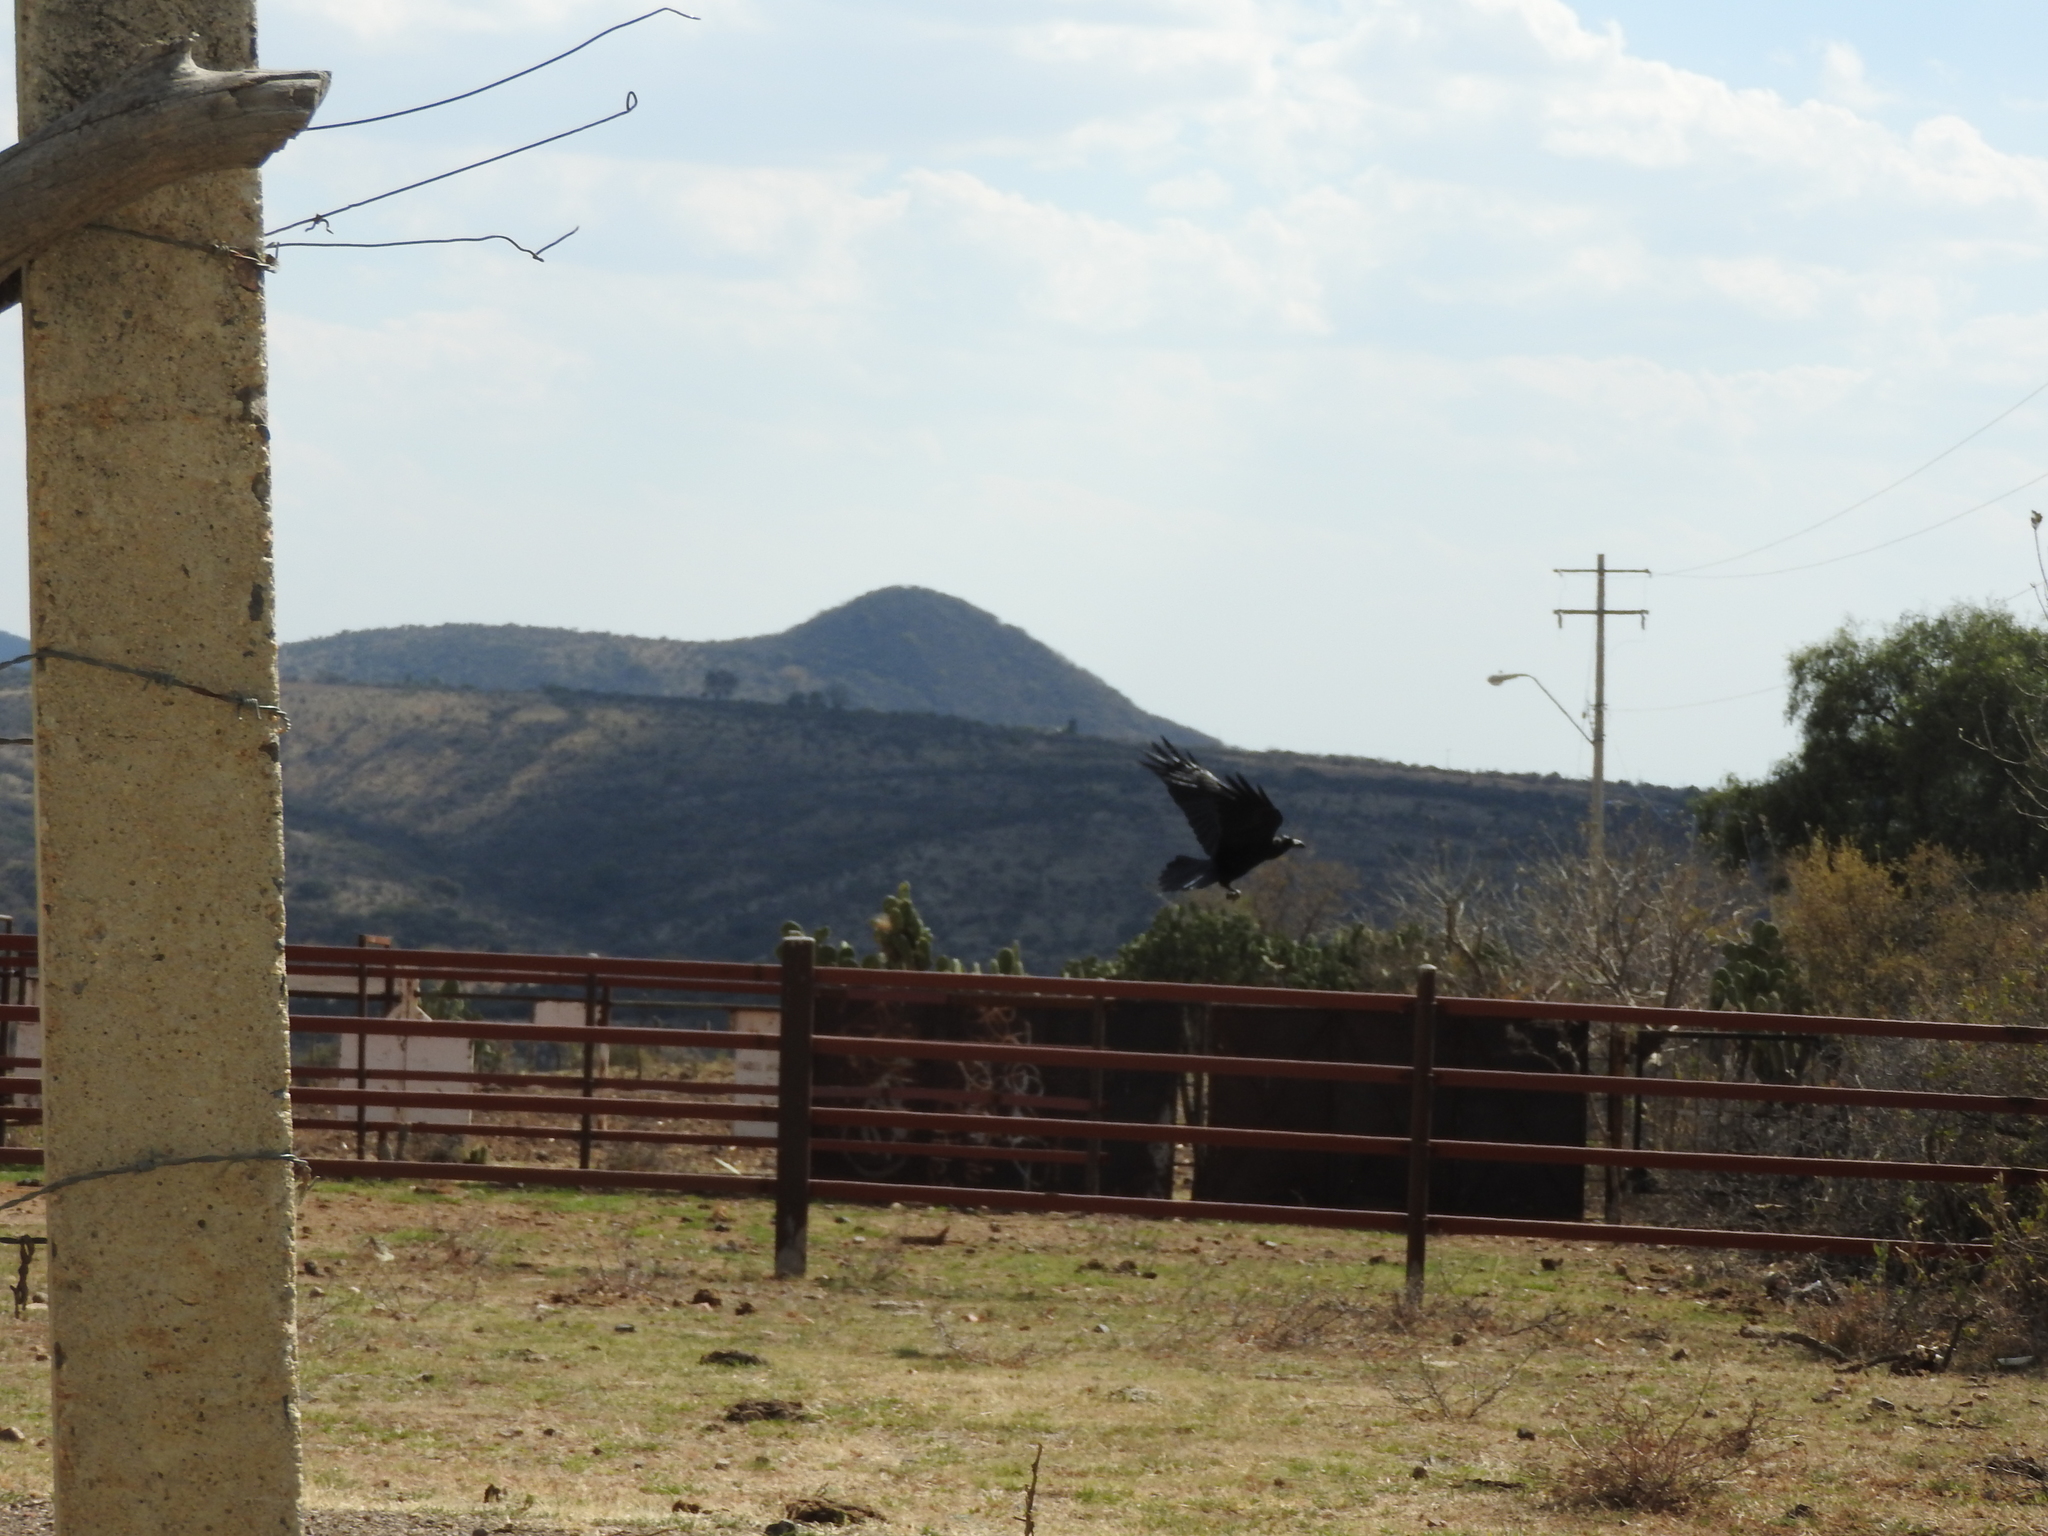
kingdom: Animalia
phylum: Chordata
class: Aves
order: Passeriformes
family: Corvidae
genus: Corvus
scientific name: Corvus corax
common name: Common raven
